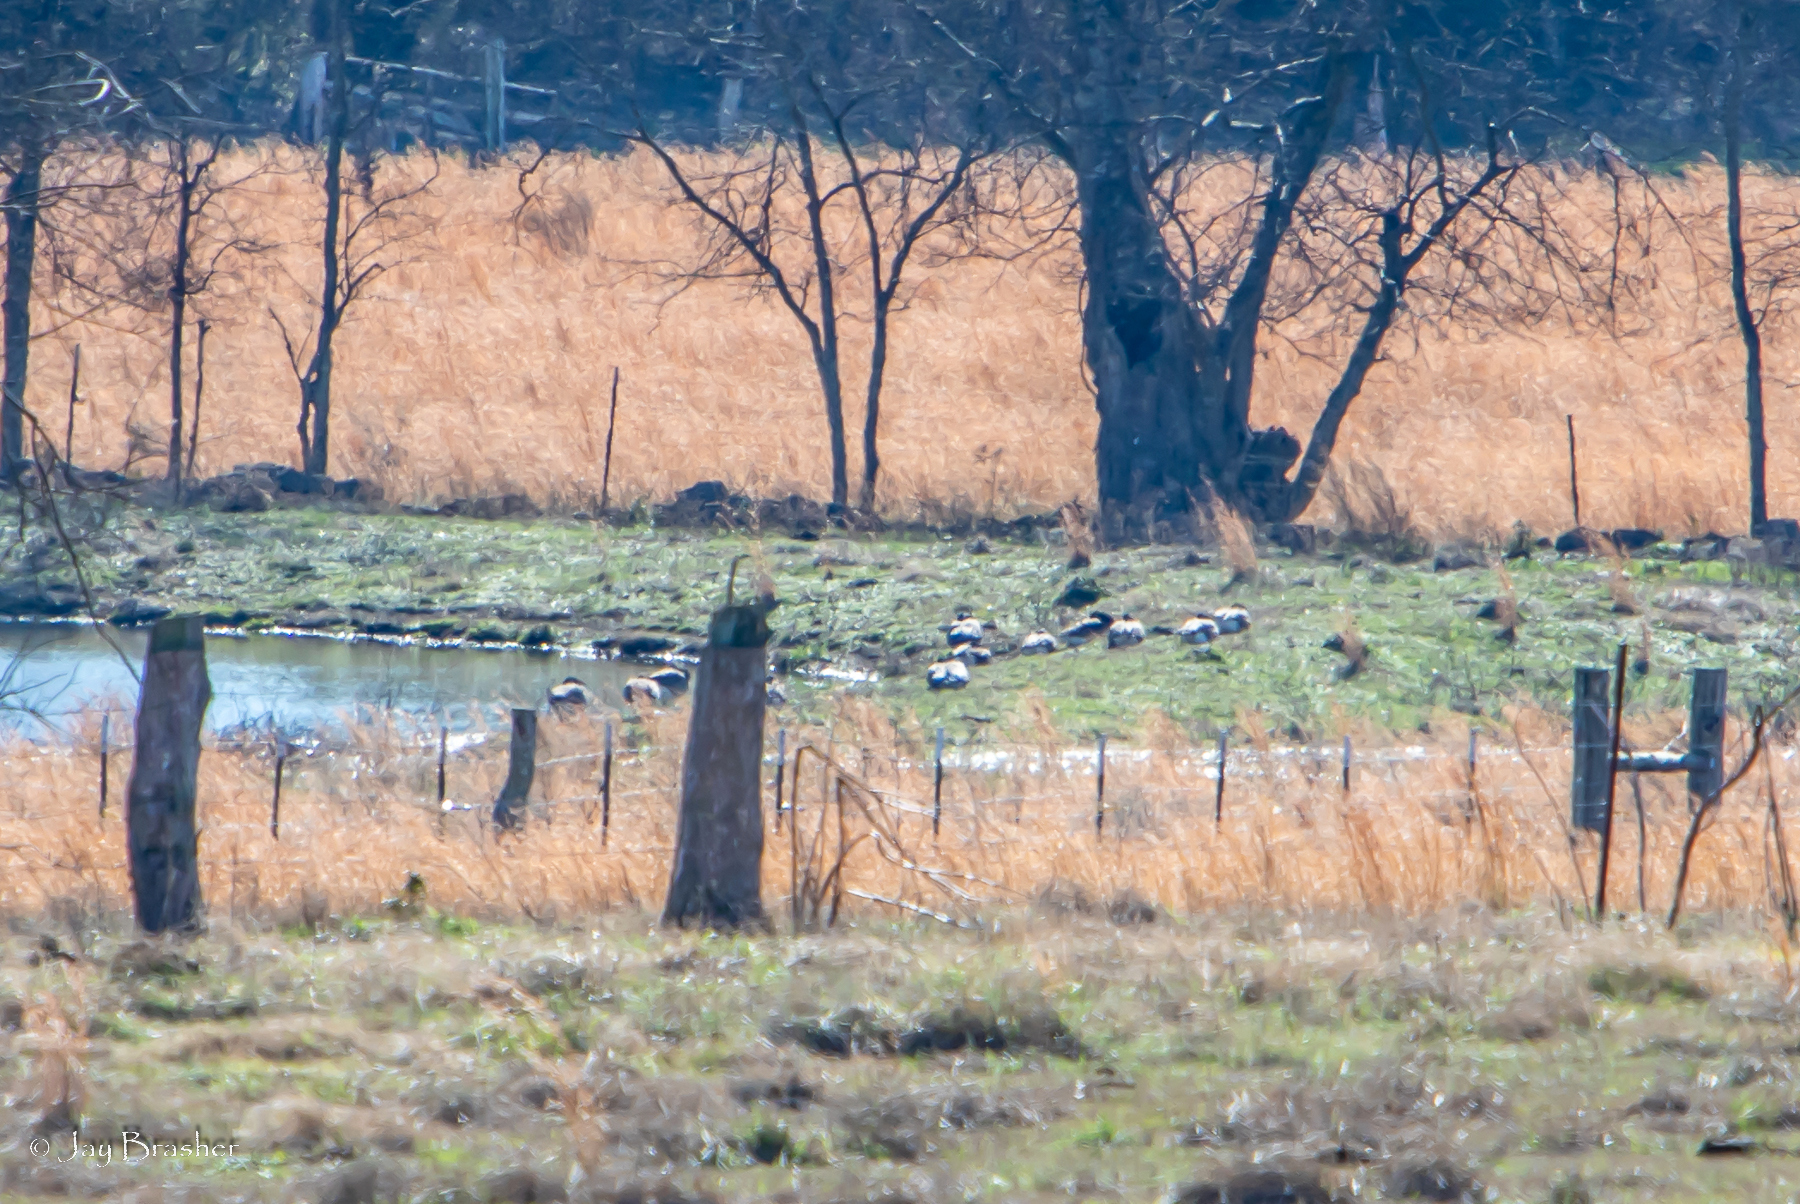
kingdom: Animalia
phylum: Chordata
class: Aves
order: Anseriformes
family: Anatidae
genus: Branta
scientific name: Branta canadensis
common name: Canada goose
